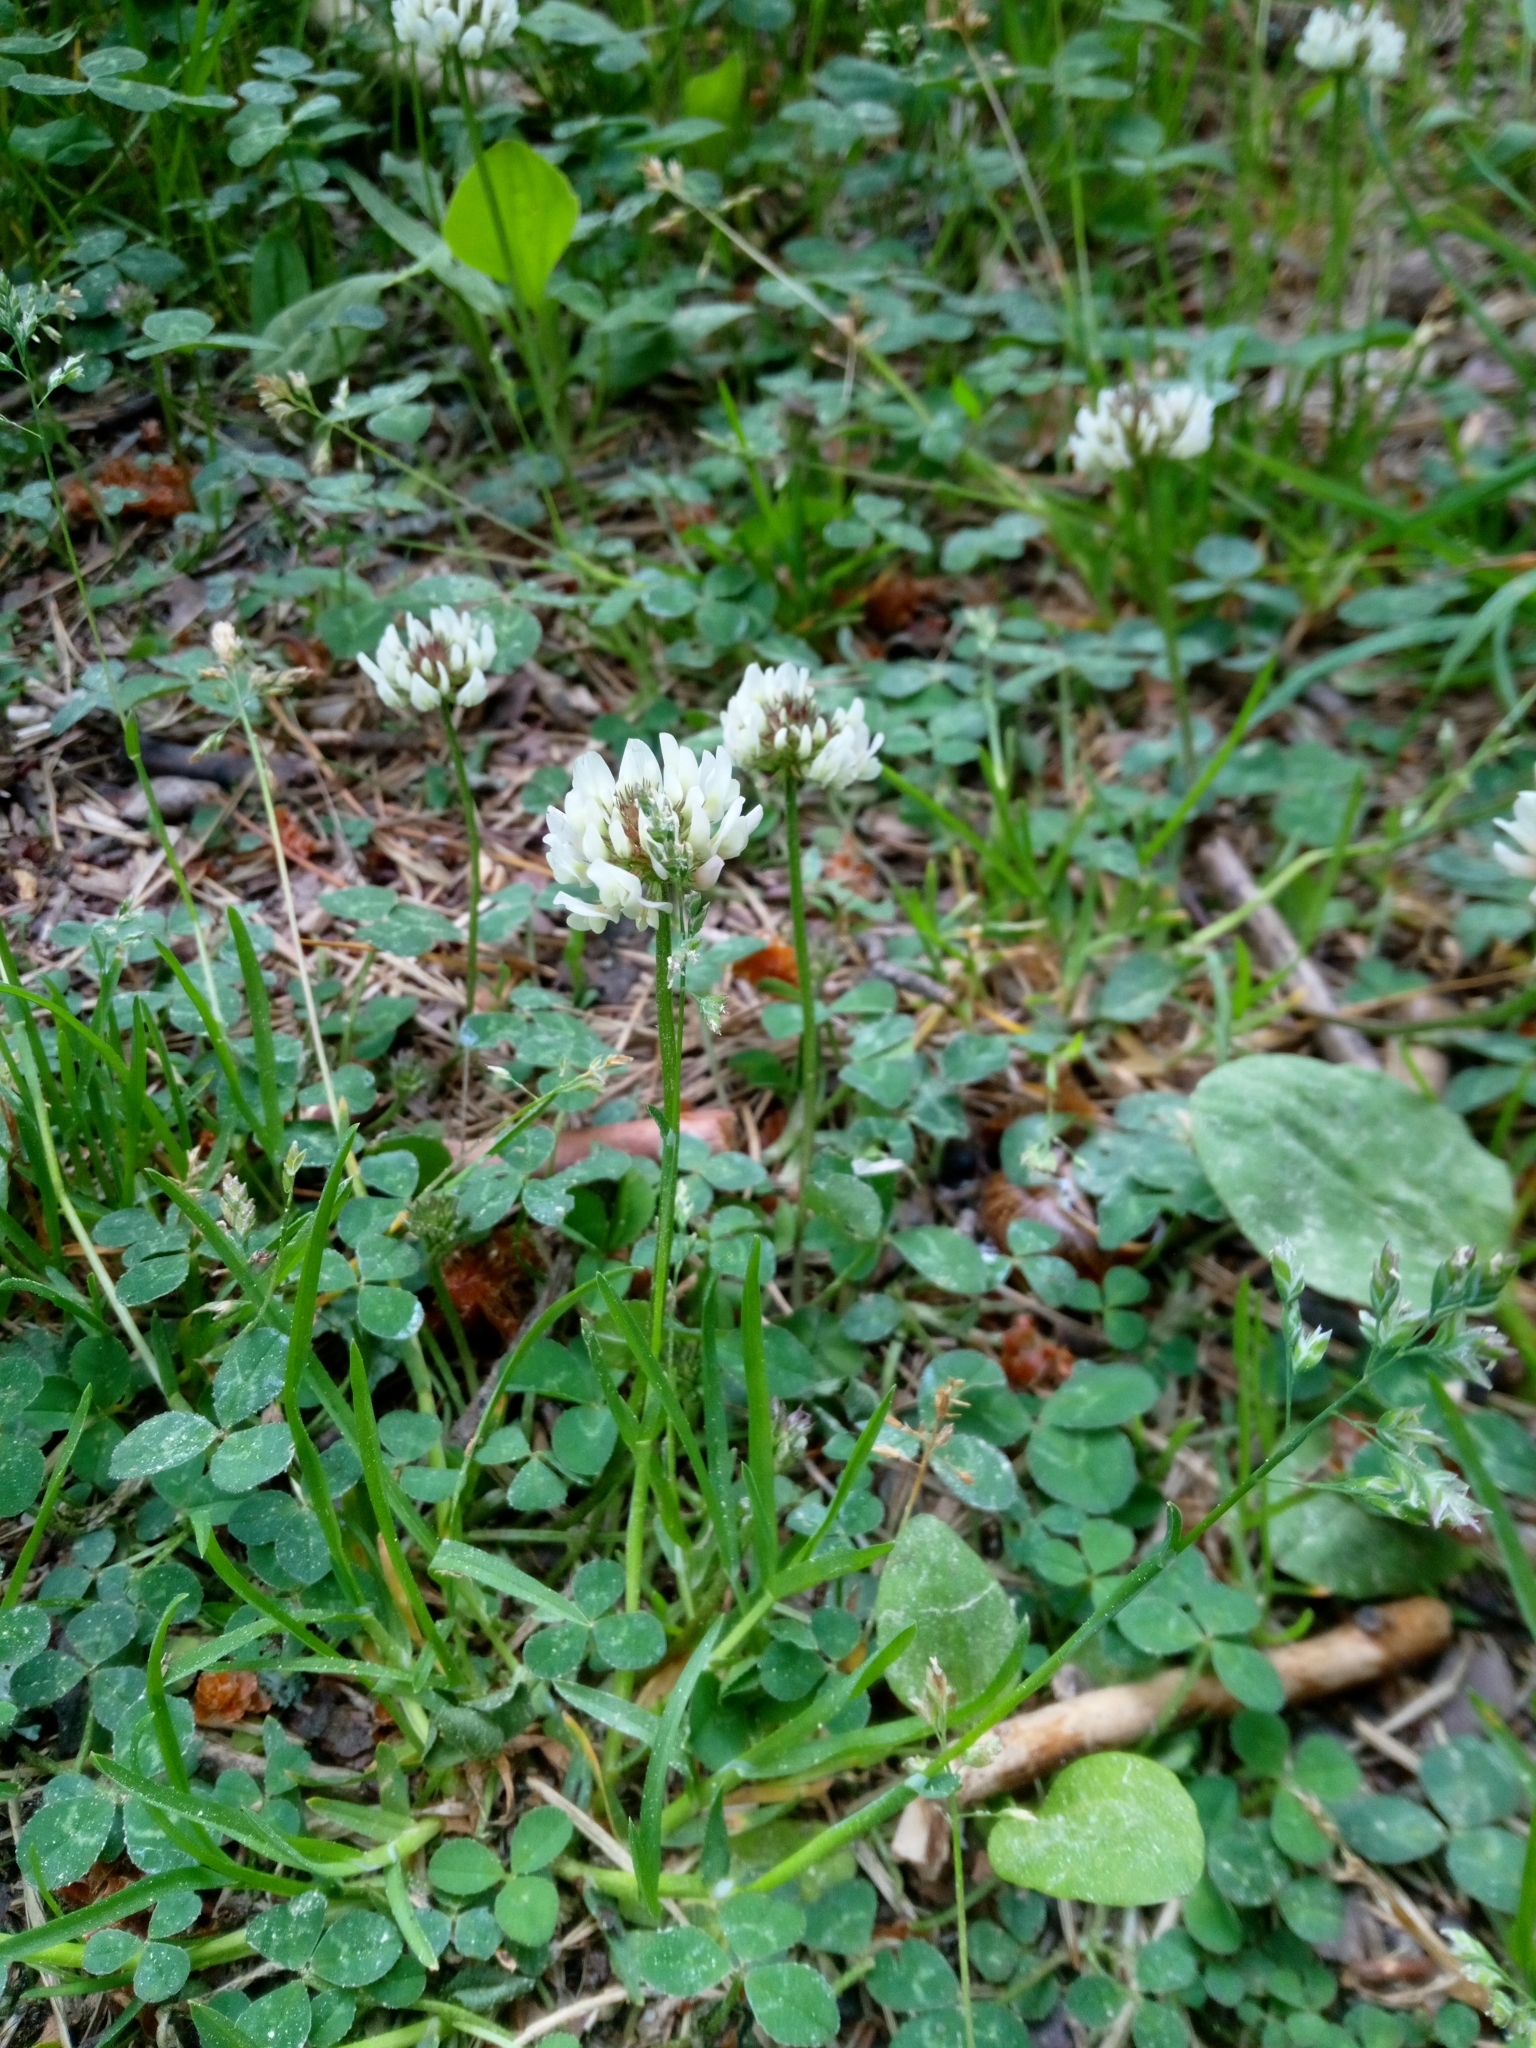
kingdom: Plantae
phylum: Tracheophyta
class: Magnoliopsida
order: Fabales
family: Fabaceae
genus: Trifolium
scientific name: Trifolium repens
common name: White clover
